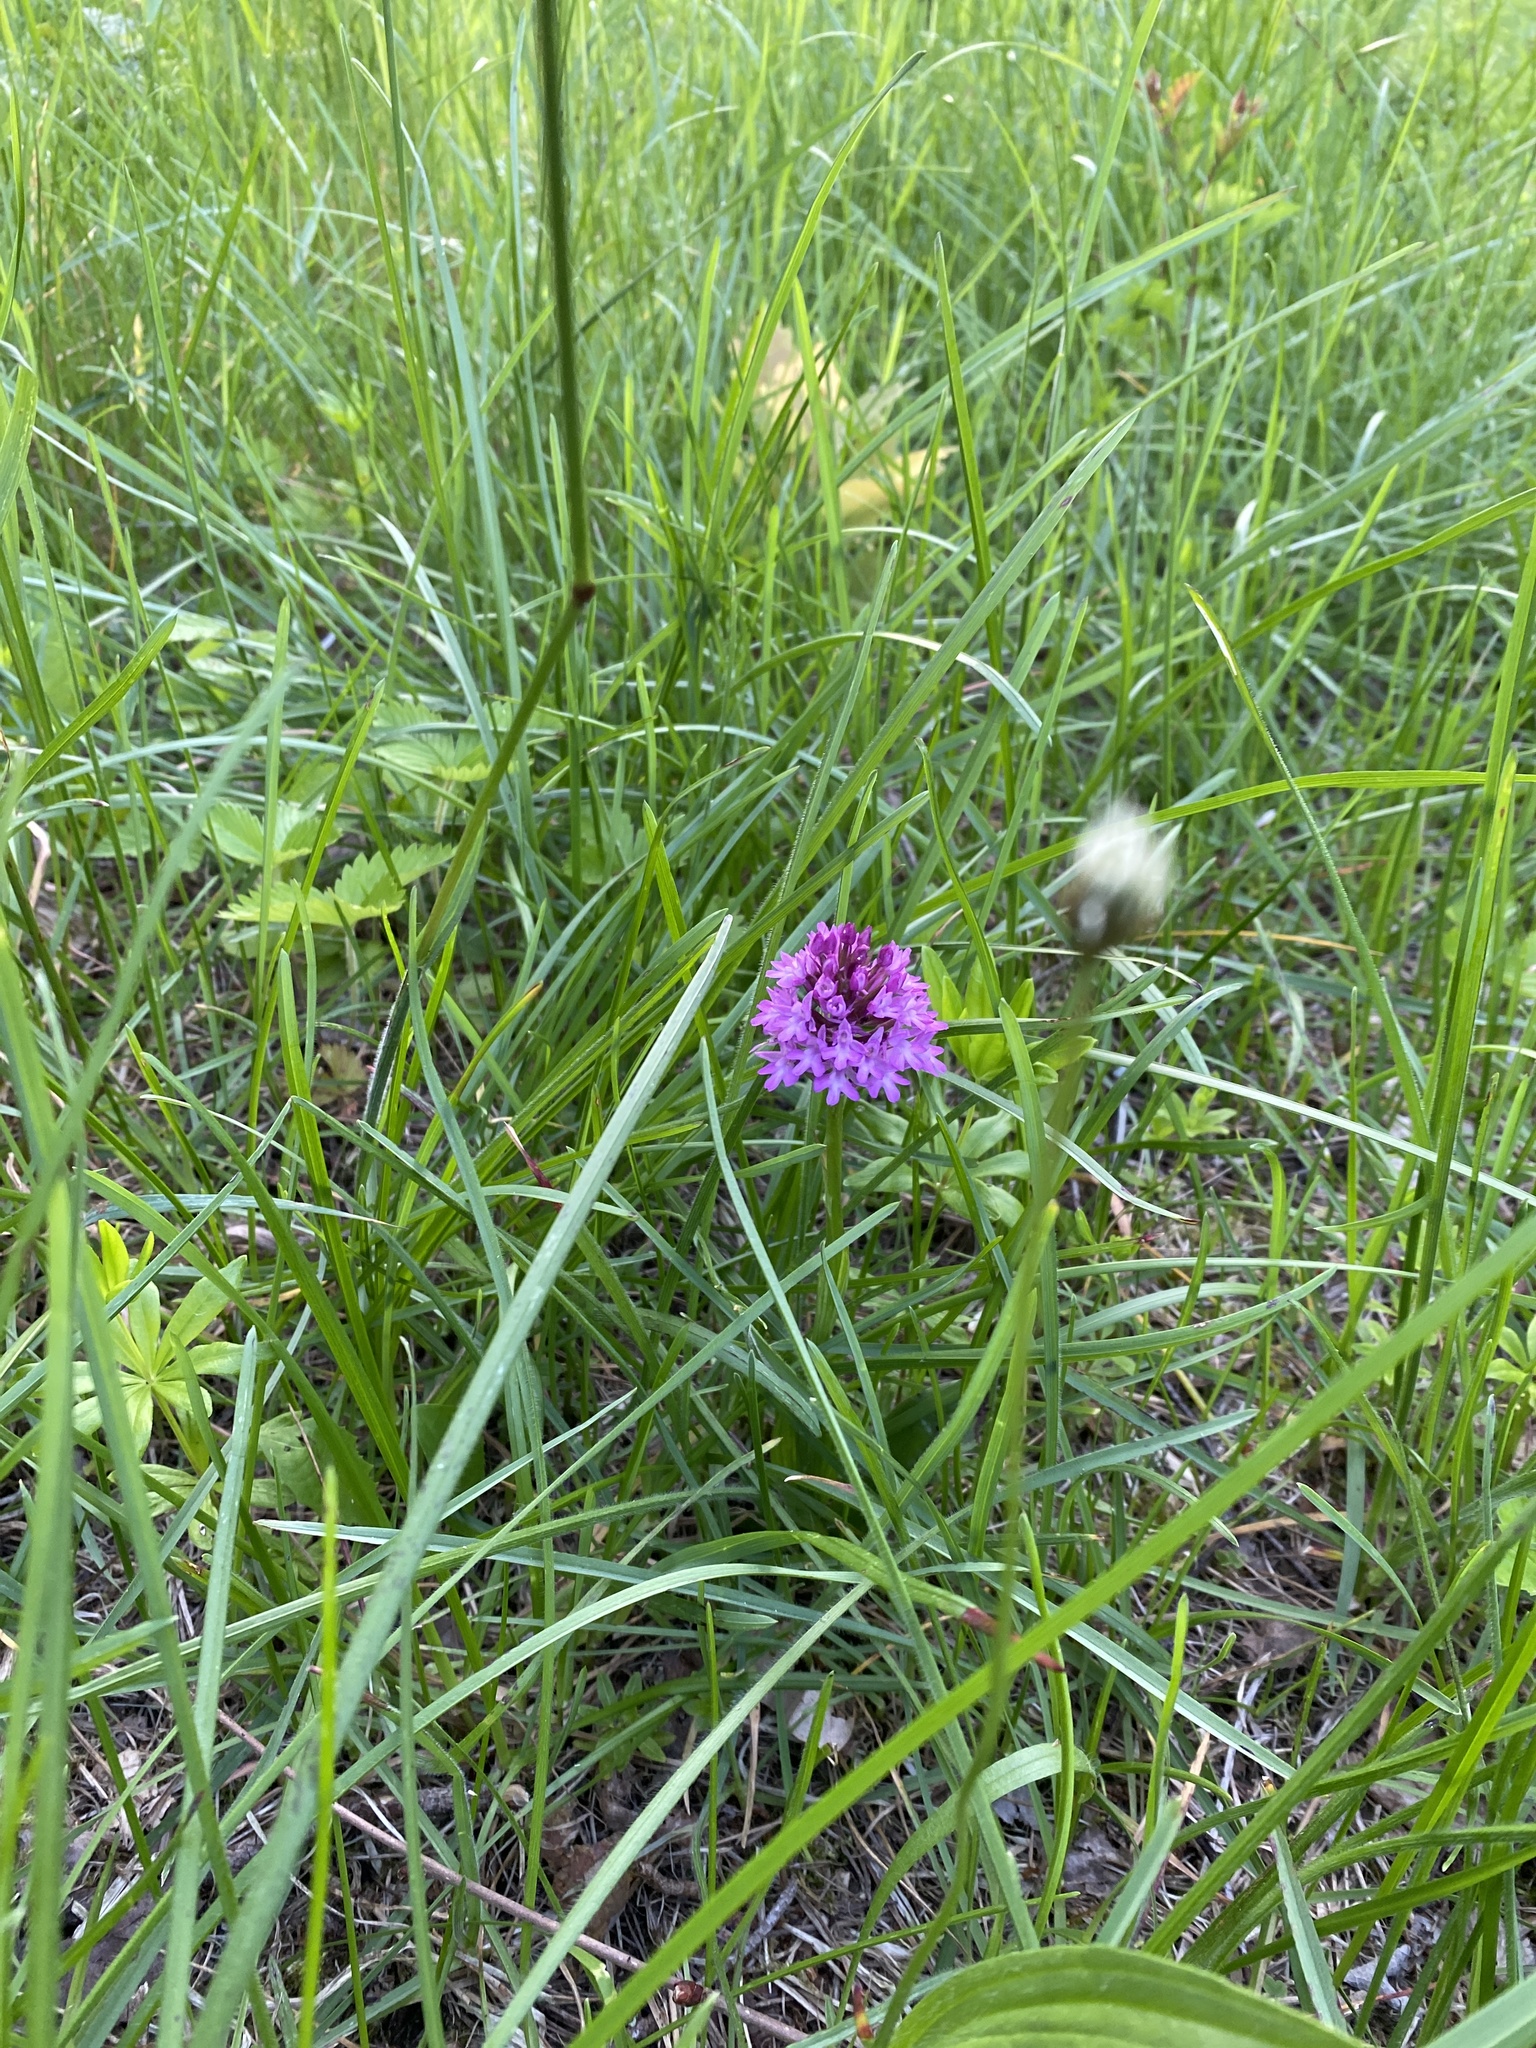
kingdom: Plantae
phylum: Tracheophyta
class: Liliopsida
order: Asparagales
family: Orchidaceae
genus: Anacamptis
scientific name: Anacamptis pyramidalis
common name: Pyramidal orchid
